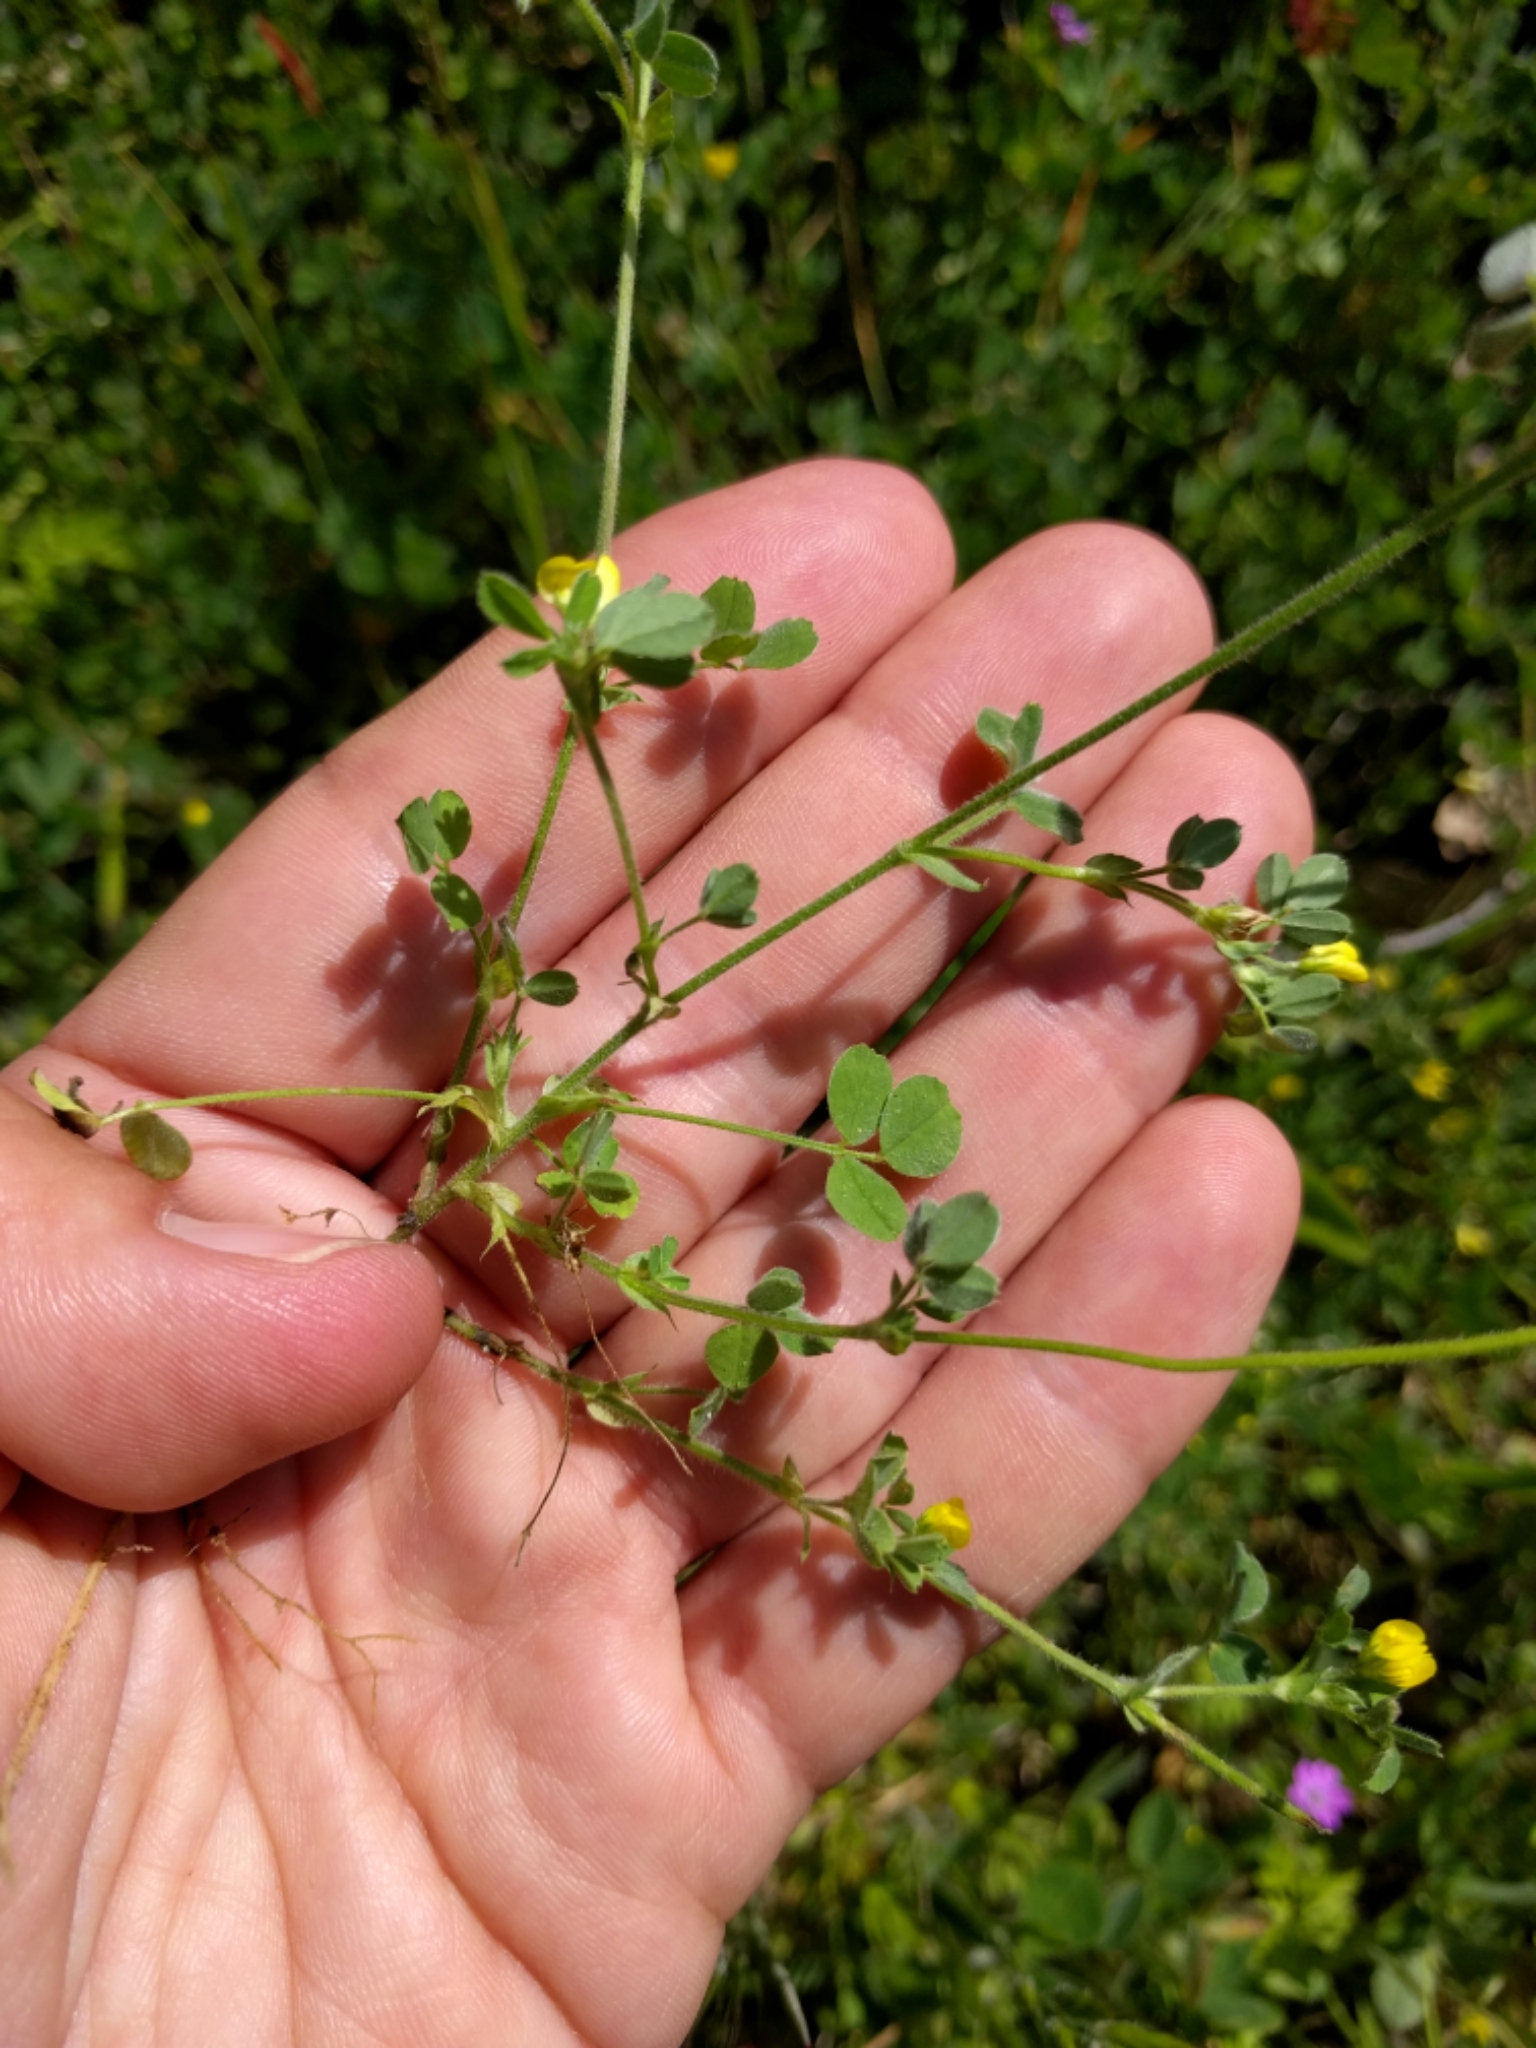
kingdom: Plantae
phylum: Tracheophyta
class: Magnoliopsida
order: Fabales
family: Fabaceae
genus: Medicago
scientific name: Medicago polymorpha
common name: Burclover
